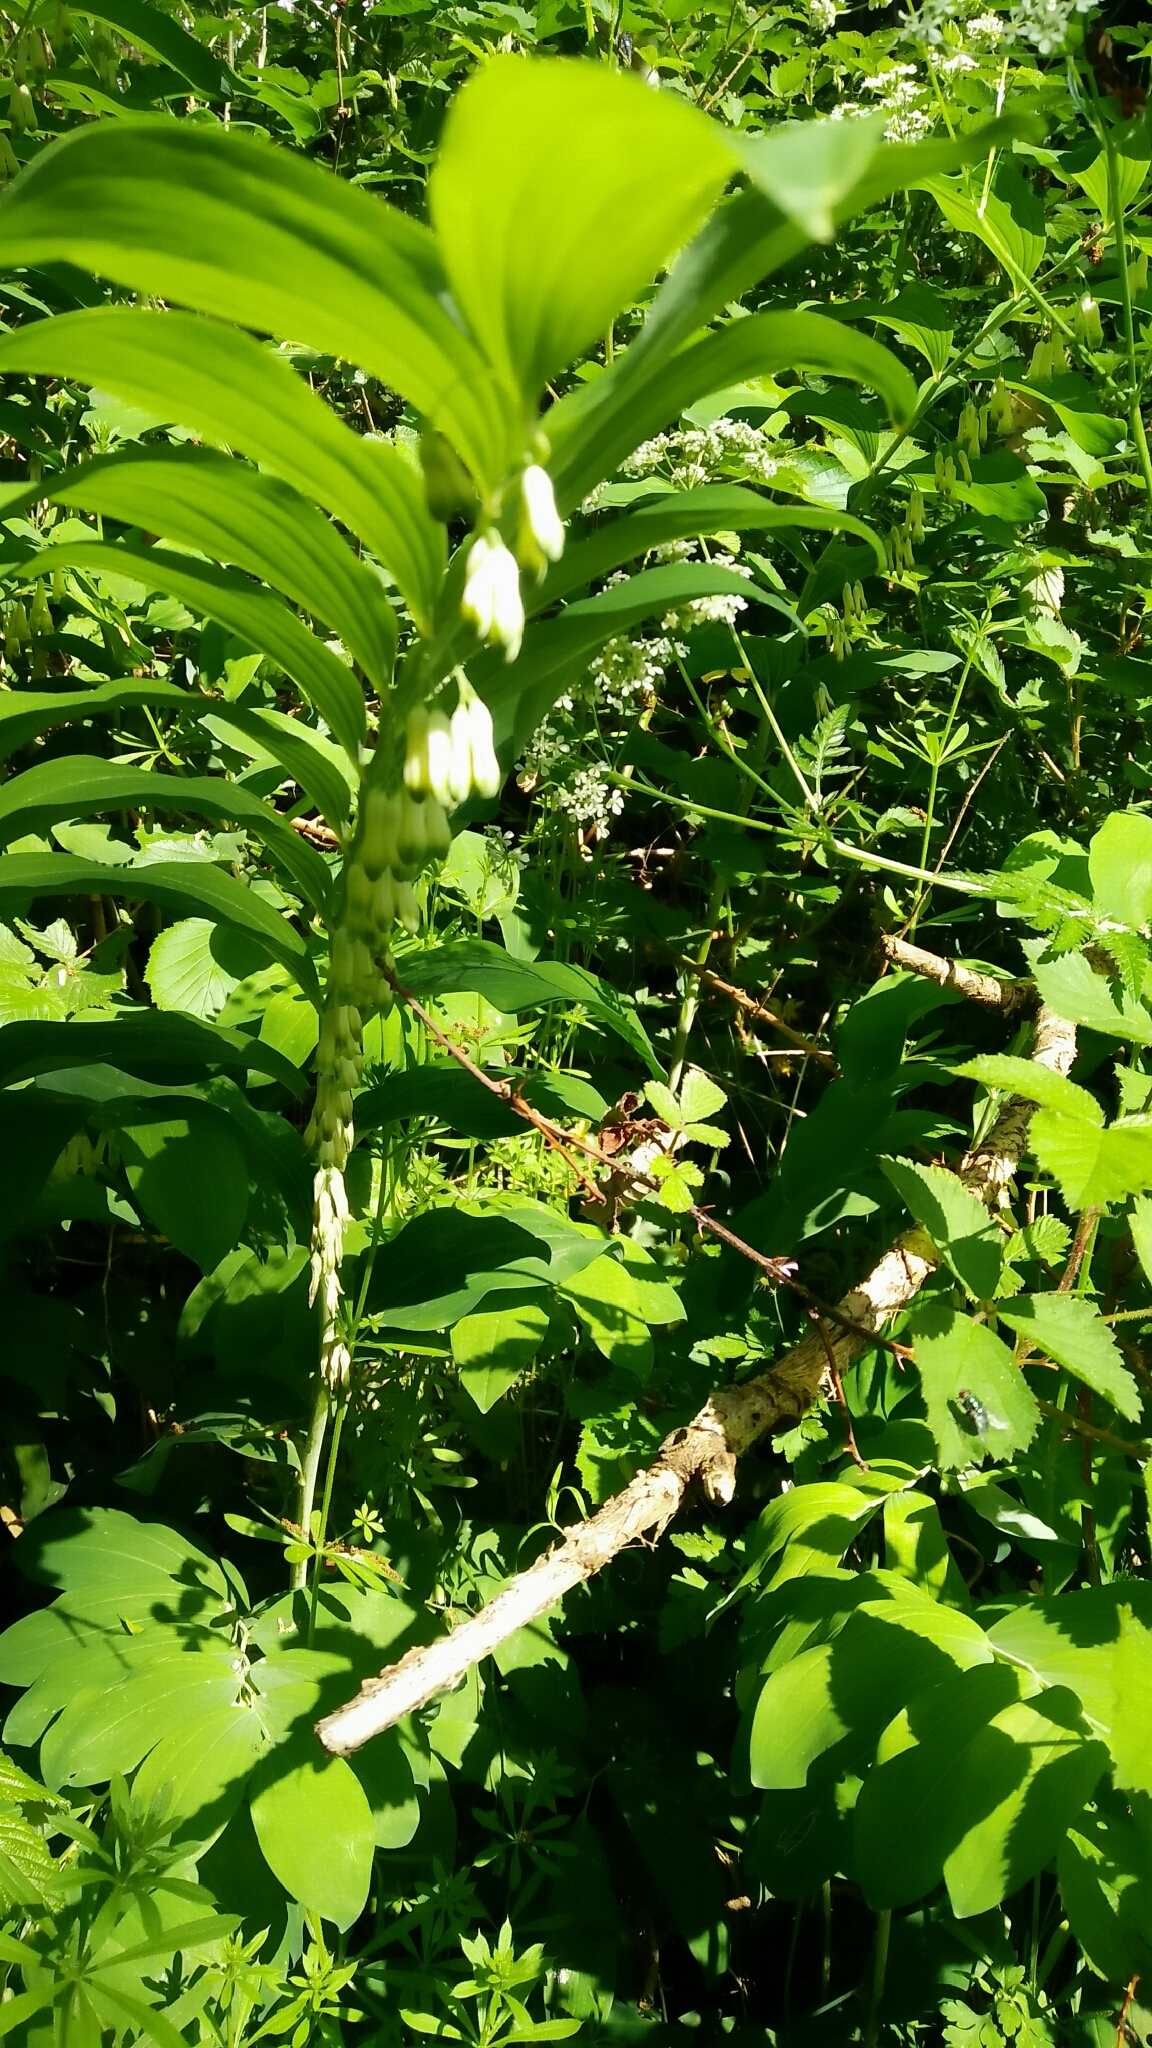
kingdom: Plantae
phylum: Tracheophyta
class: Liliopsida
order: Asparagales
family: Asparagaceae
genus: Polygonatum
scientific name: Polygonatum multiflorum
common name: Solomon's-seal
